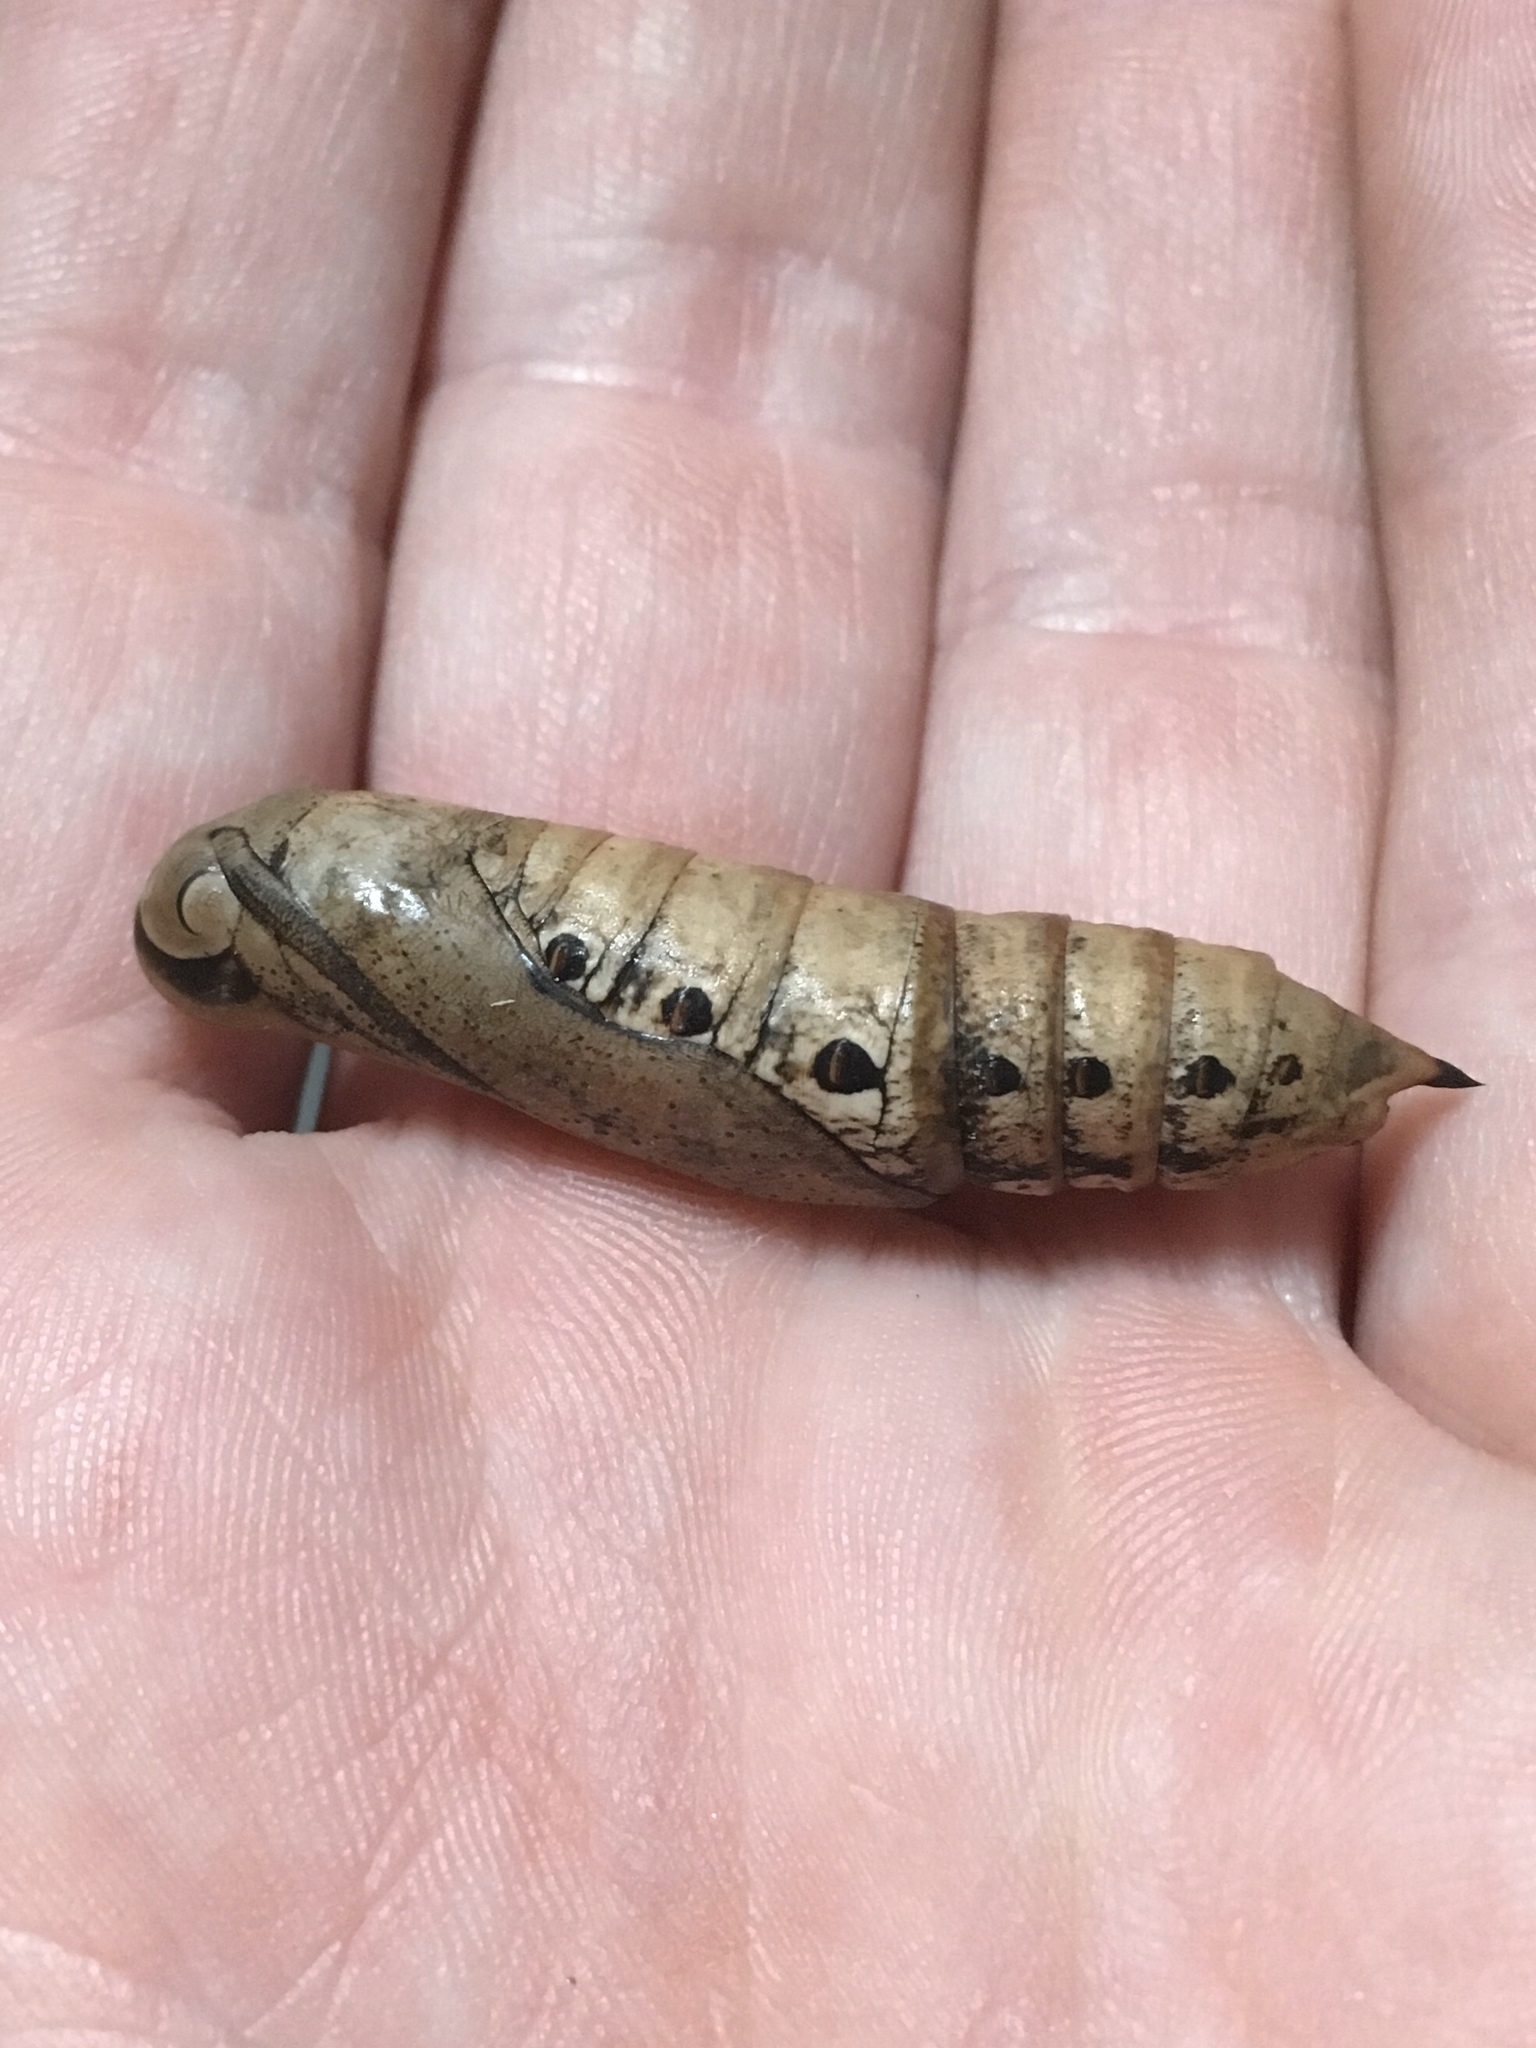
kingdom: Animalia
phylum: Arthropoda
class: Insecta
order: Lepidoptera
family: Sphingidae
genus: Xylophanes
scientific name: Xylophanes tersa
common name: Tersa sphinx
